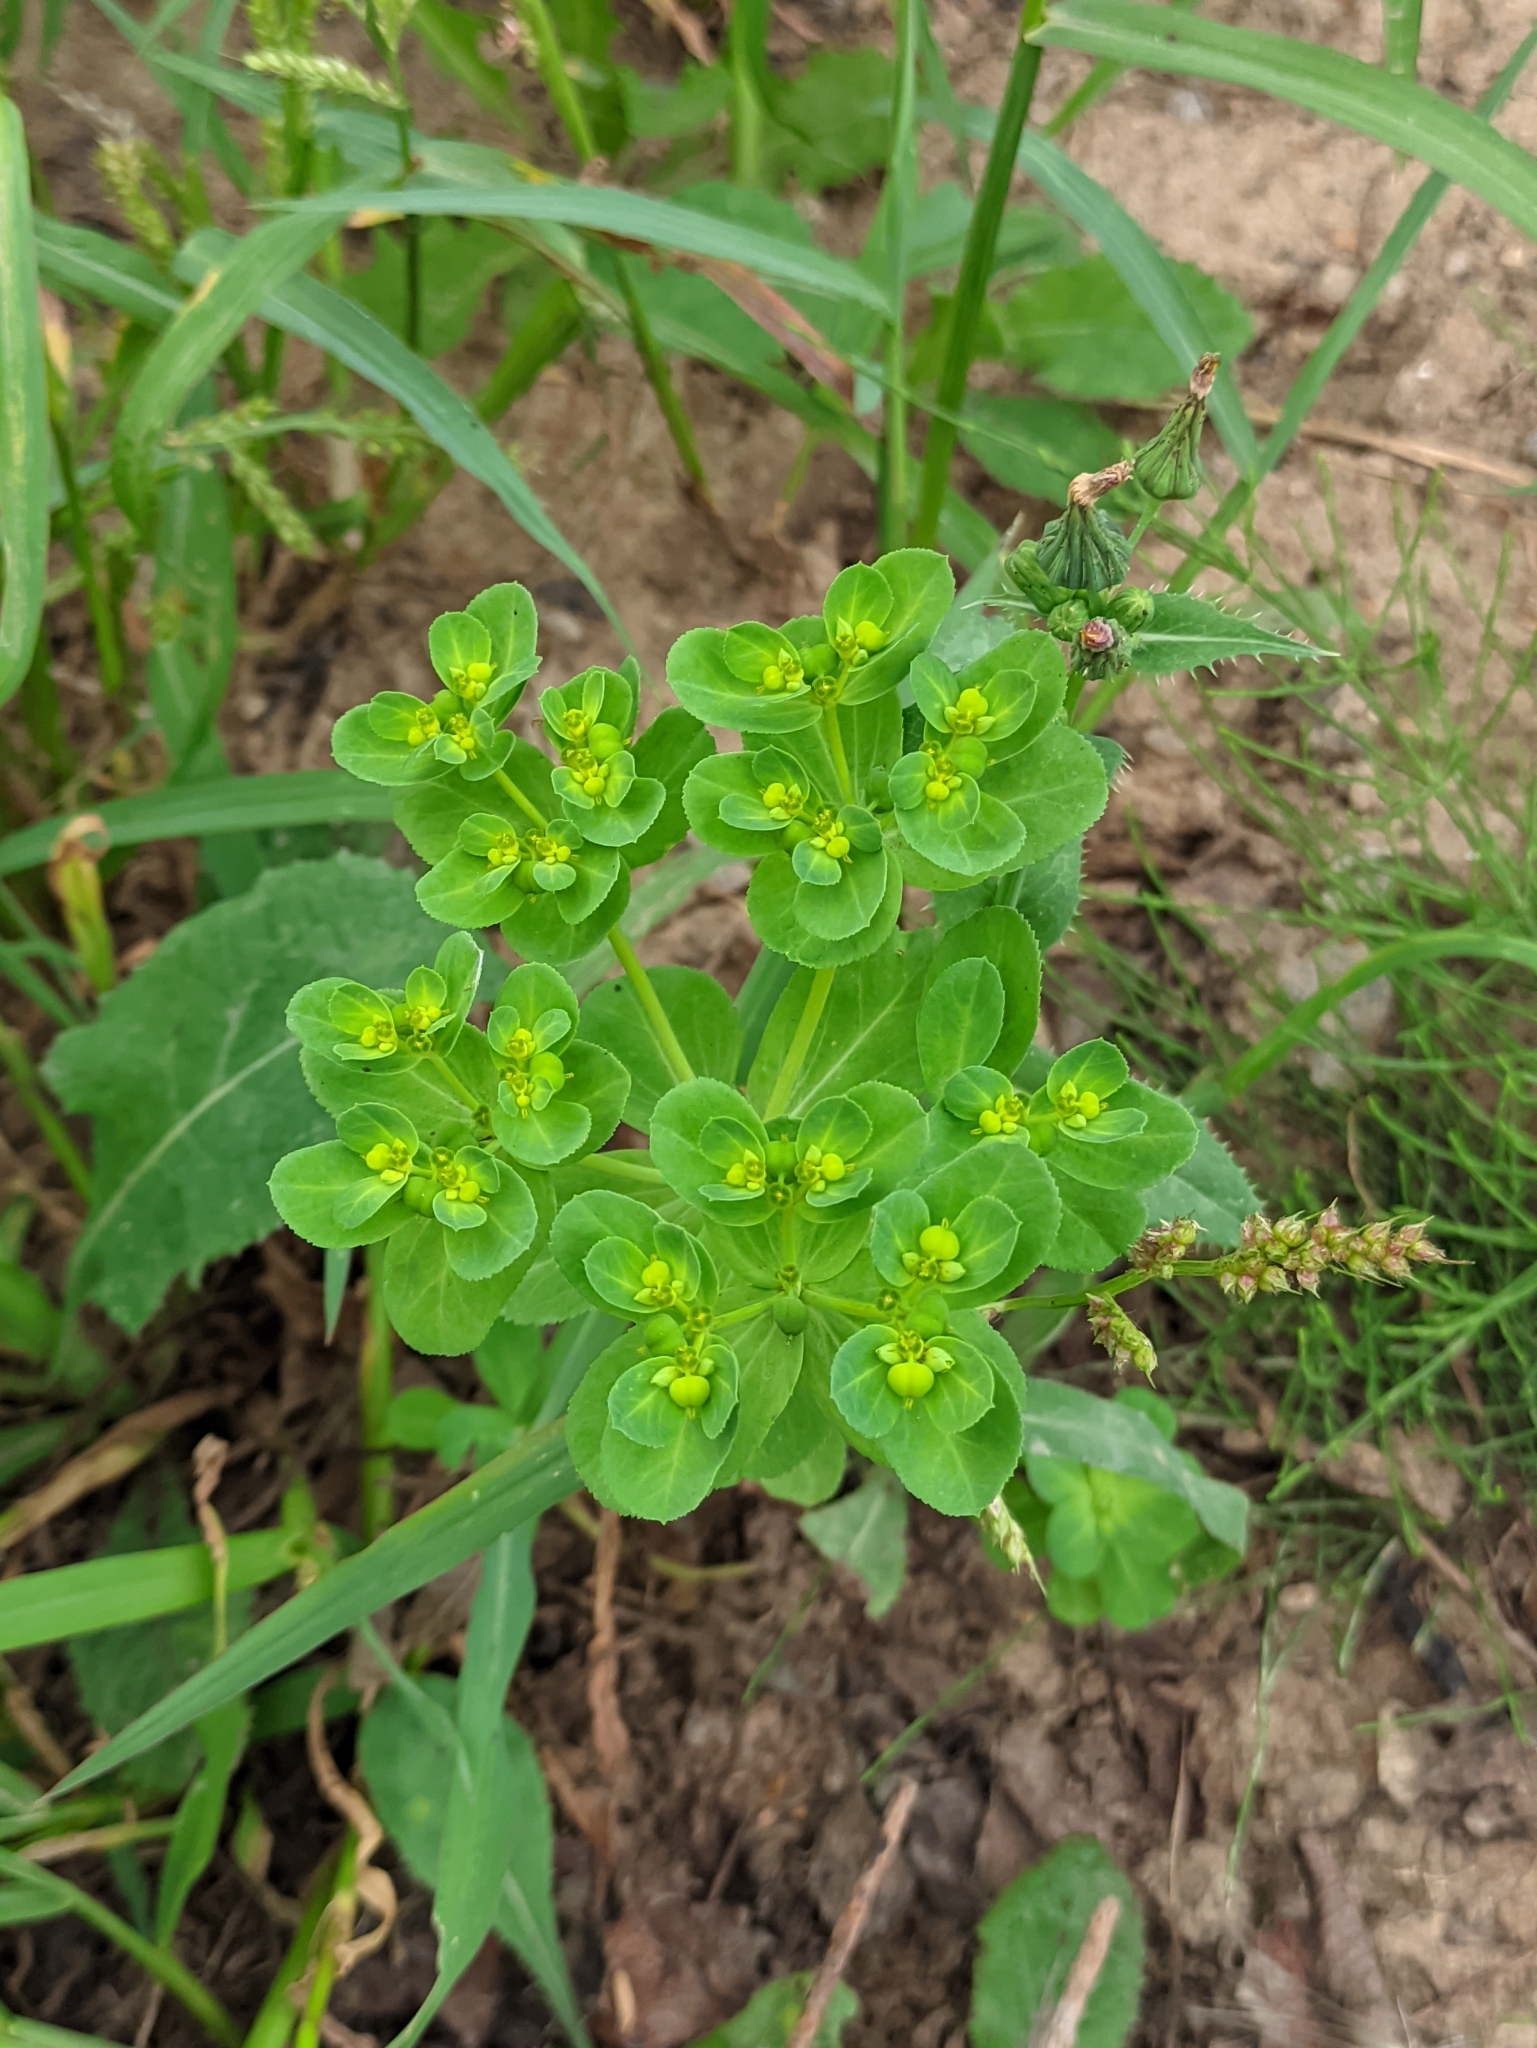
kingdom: Plantae
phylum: Tracheophyta
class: Magnoliopsida
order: Malpighiales
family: Euphorbiaceae
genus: Euphorbia
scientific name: Euphorbia helioscopia
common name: Sun spurge
